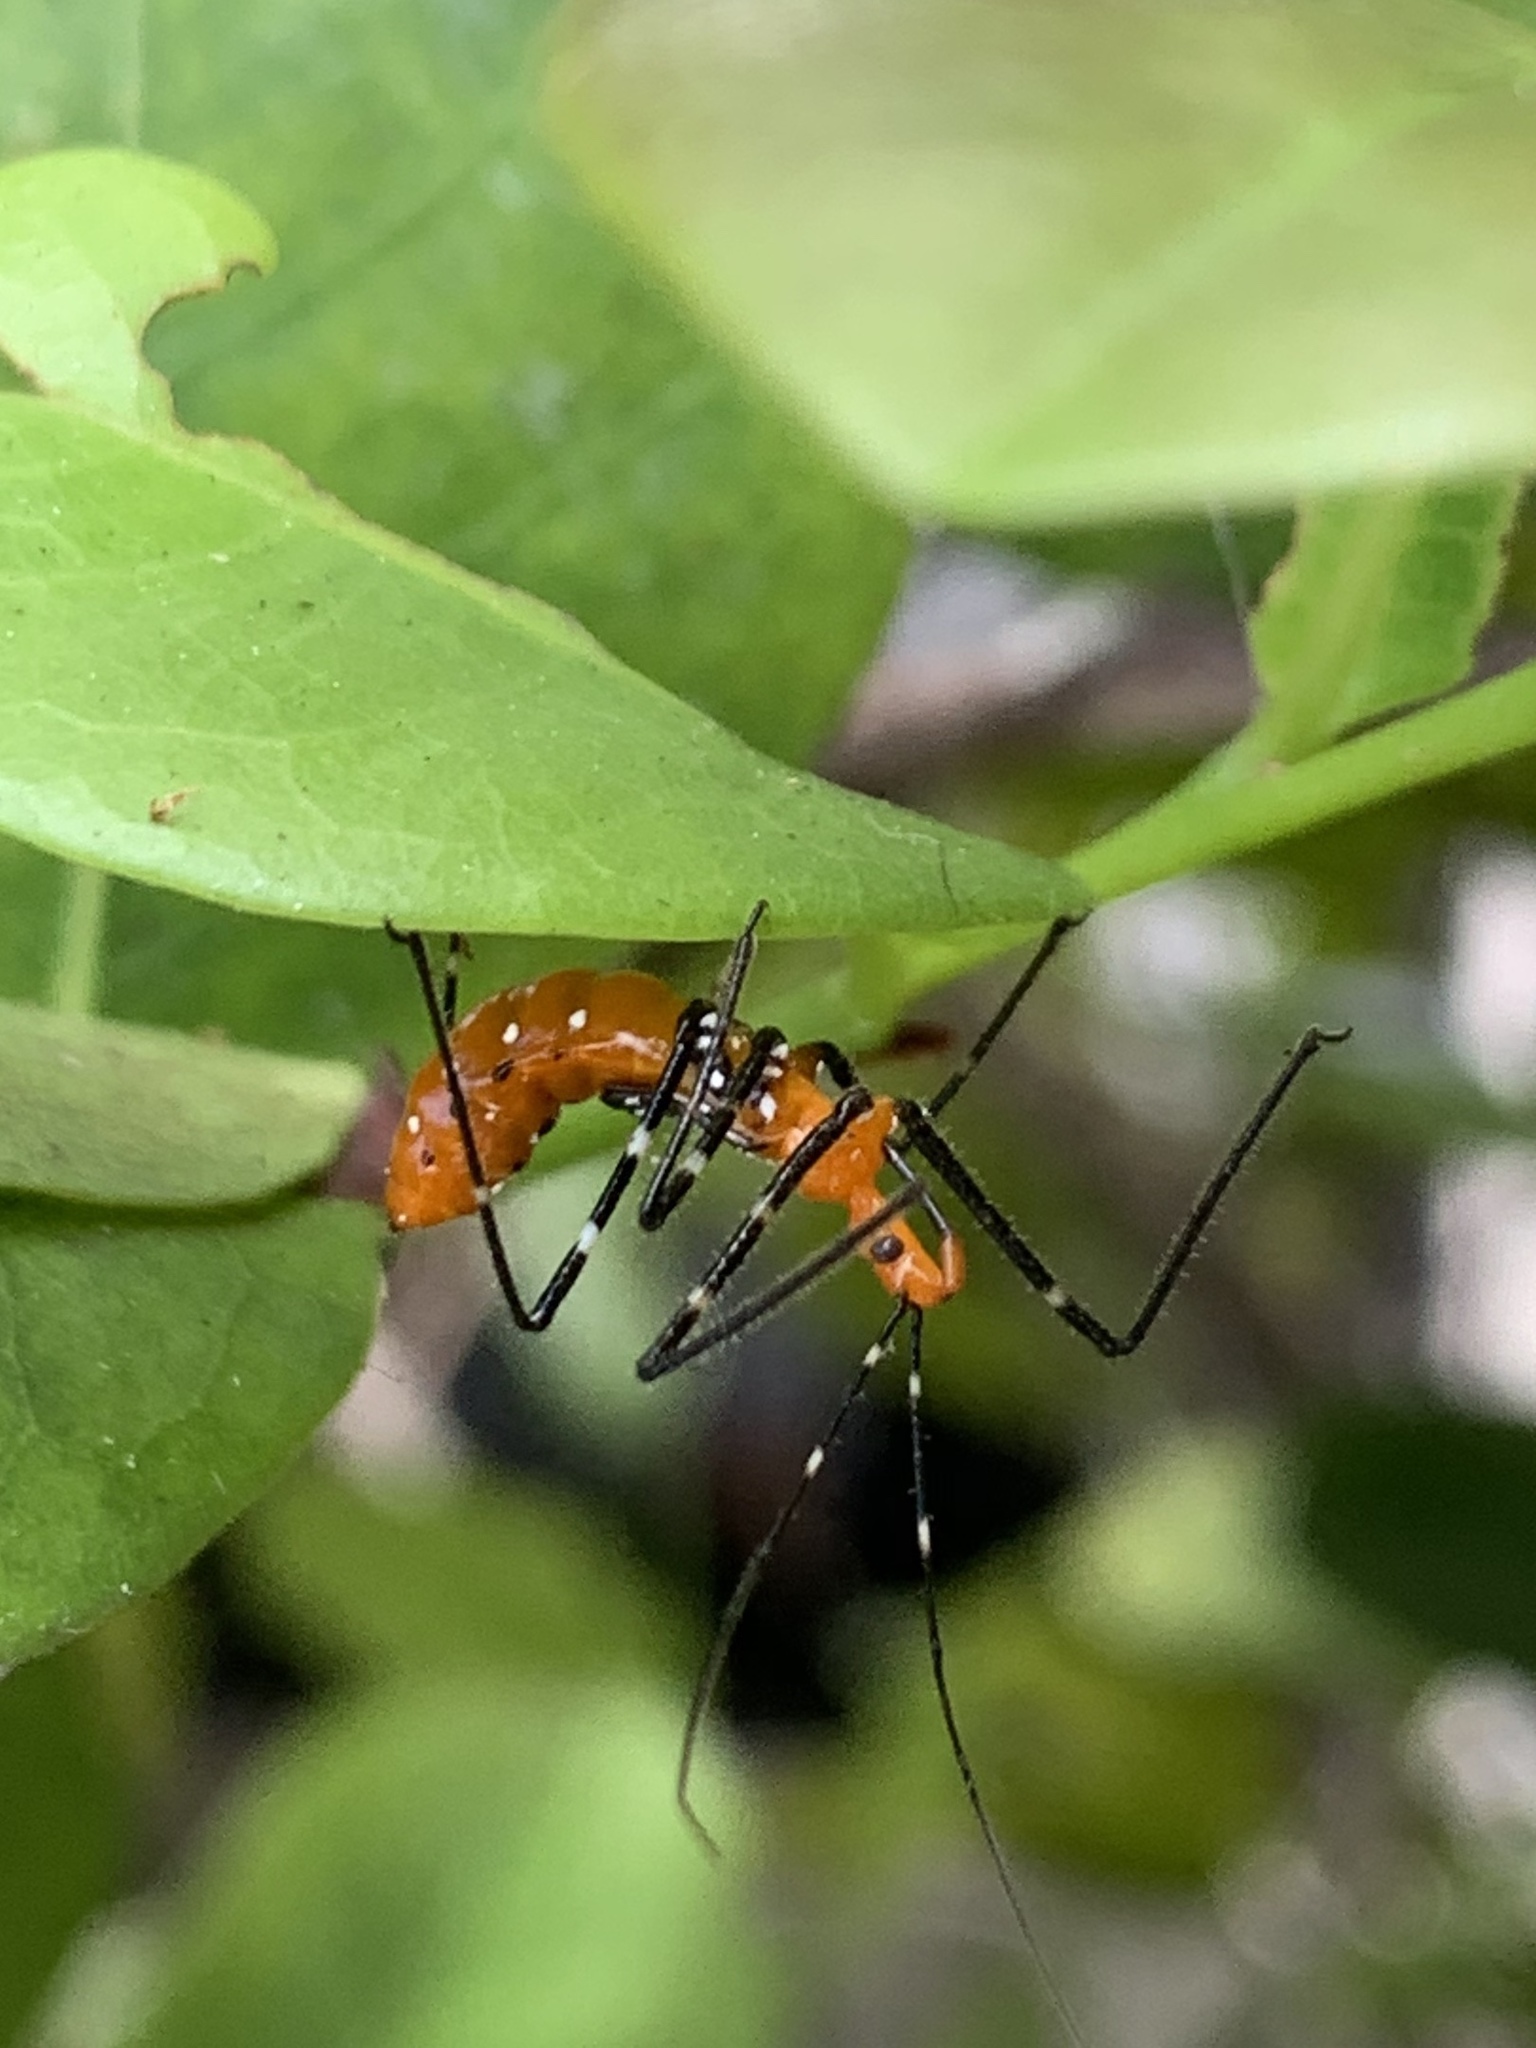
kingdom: Animalia
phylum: Arthropoda
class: Insecta
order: Hemiptera
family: Reduviidae
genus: Zelus
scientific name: Zelus longipes
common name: Milkweed assassin bug
